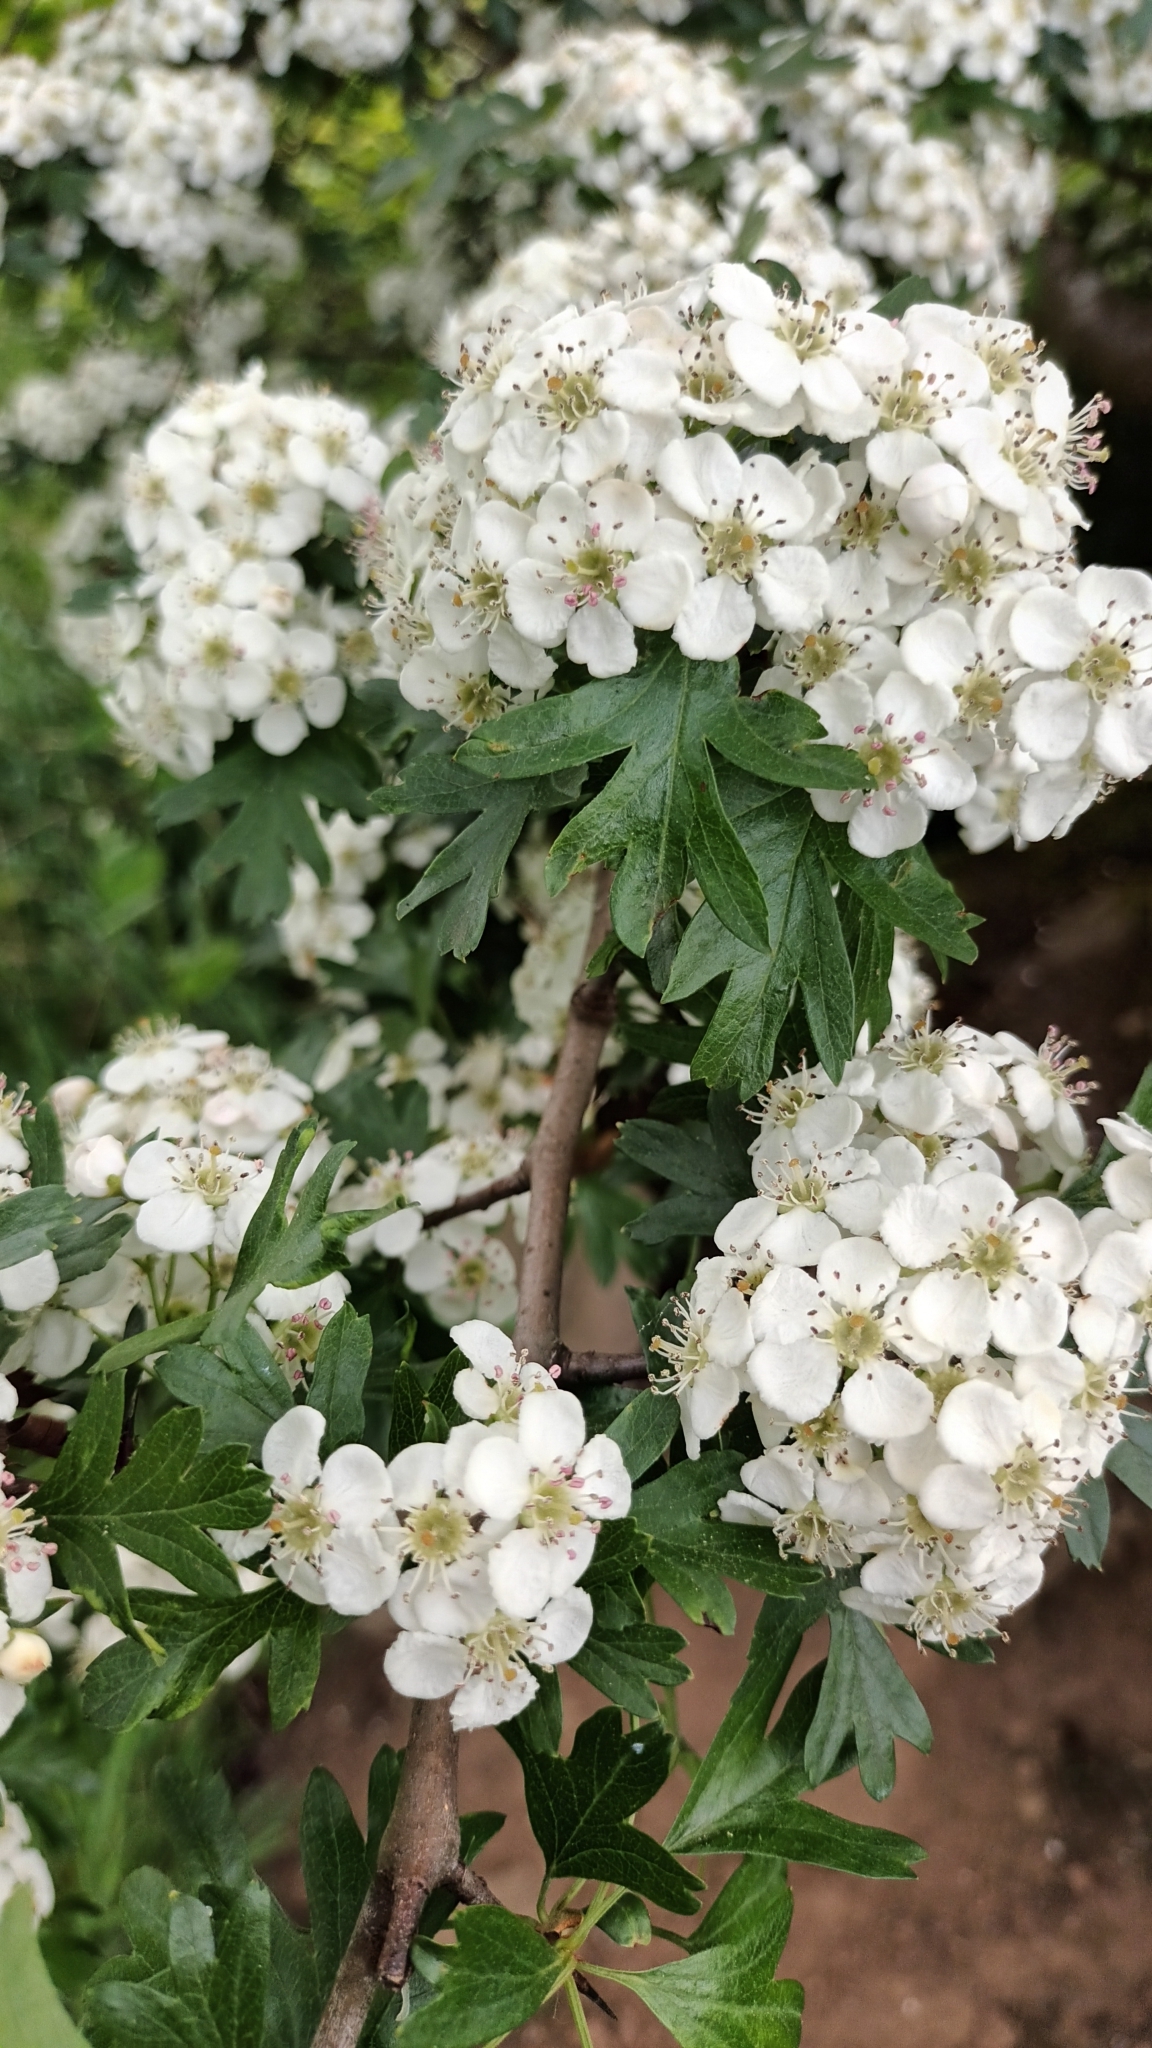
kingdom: Plantae
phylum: Tracheophyta
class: Magnoliopsida
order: Rosales
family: Rosaceae
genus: Crataegus
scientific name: Crataegus monogyna
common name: Hawthorn
